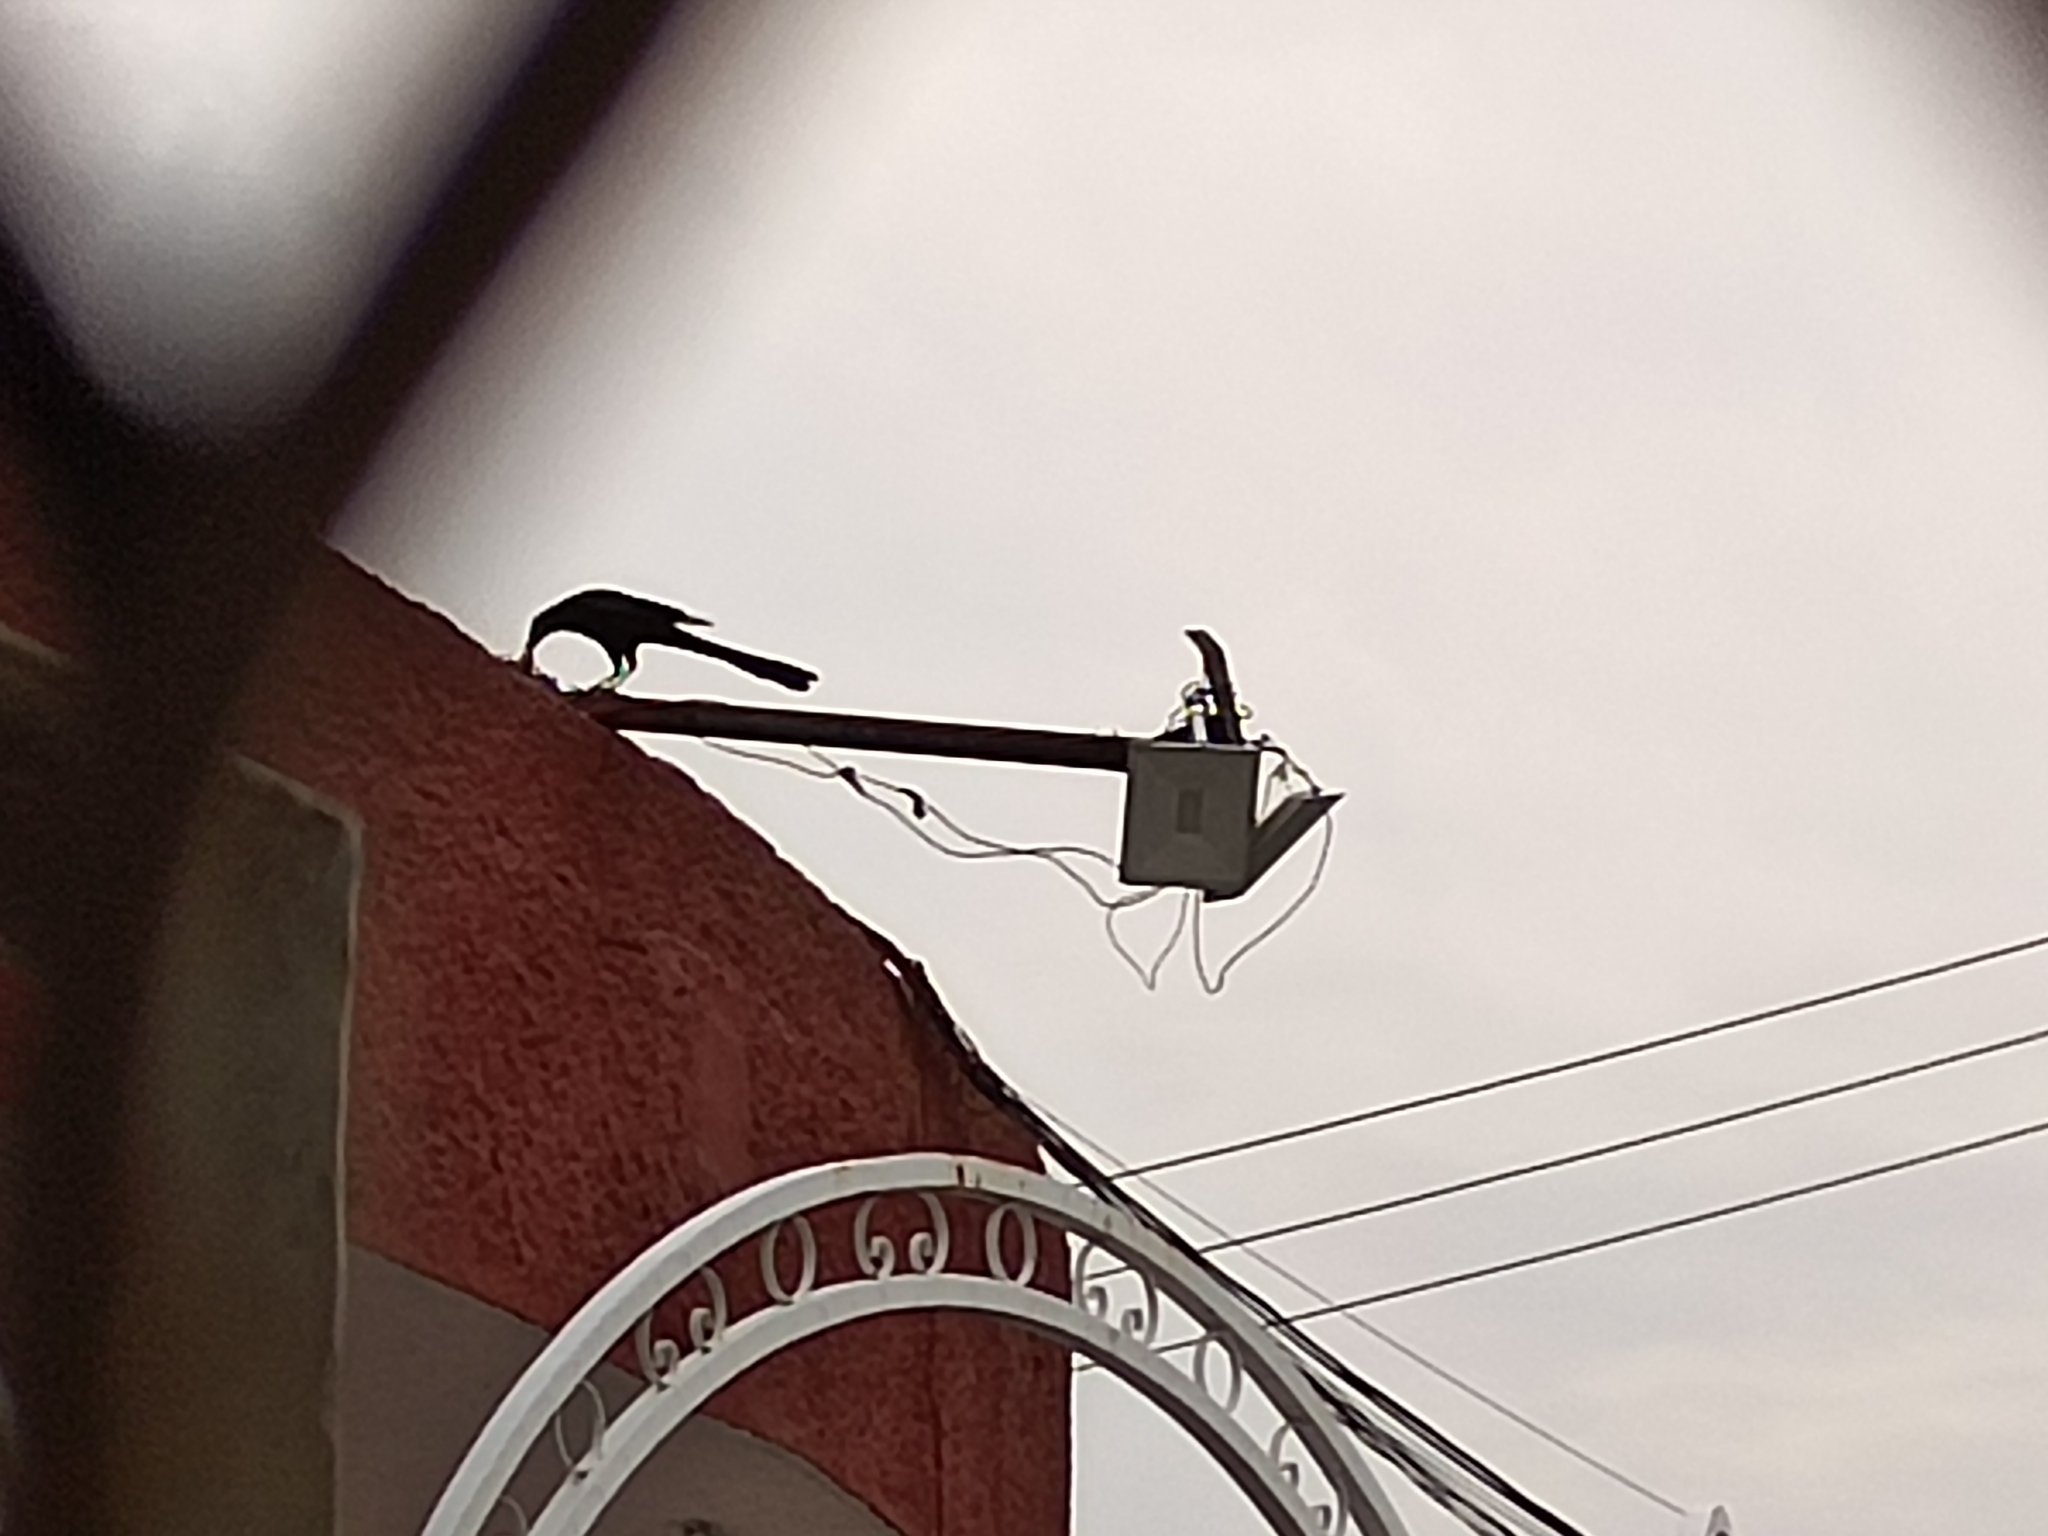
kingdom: Animalia
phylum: Chordata
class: Aves
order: Passeriformes
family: Icteridae
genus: Quiscalus
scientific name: Quiscalus mexicanus
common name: Great-tailed grackle
